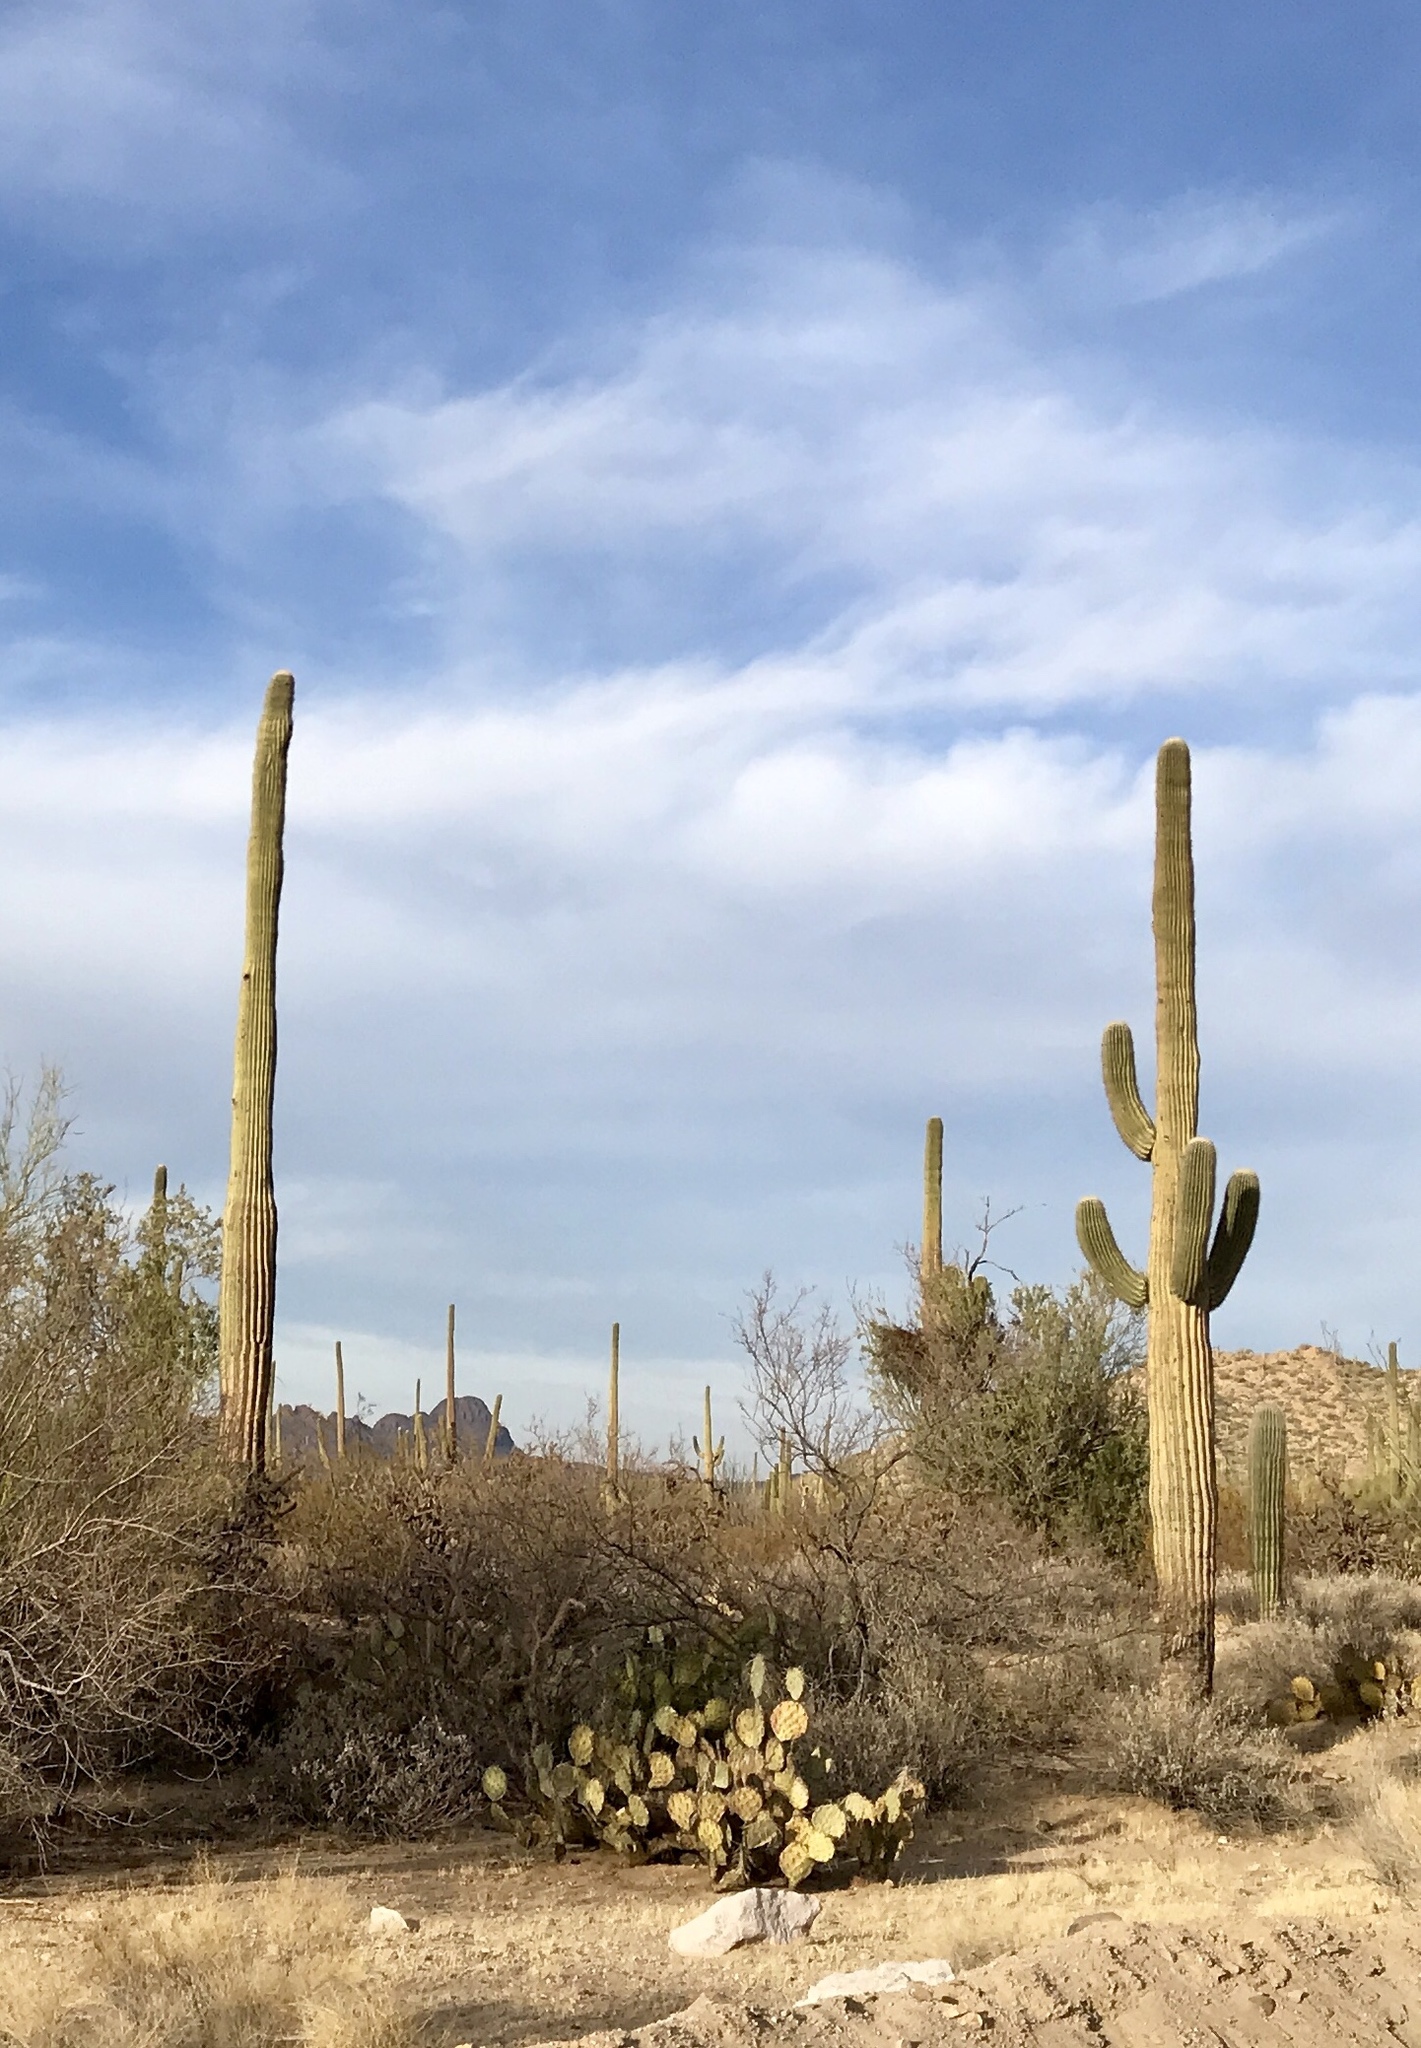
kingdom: Plantae
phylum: Tracheophyta
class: Magnoliopsida
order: Caryophyllales
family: Cactaceae
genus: Carnegiea
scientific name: Carnegiea gigantea
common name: Saguaro
